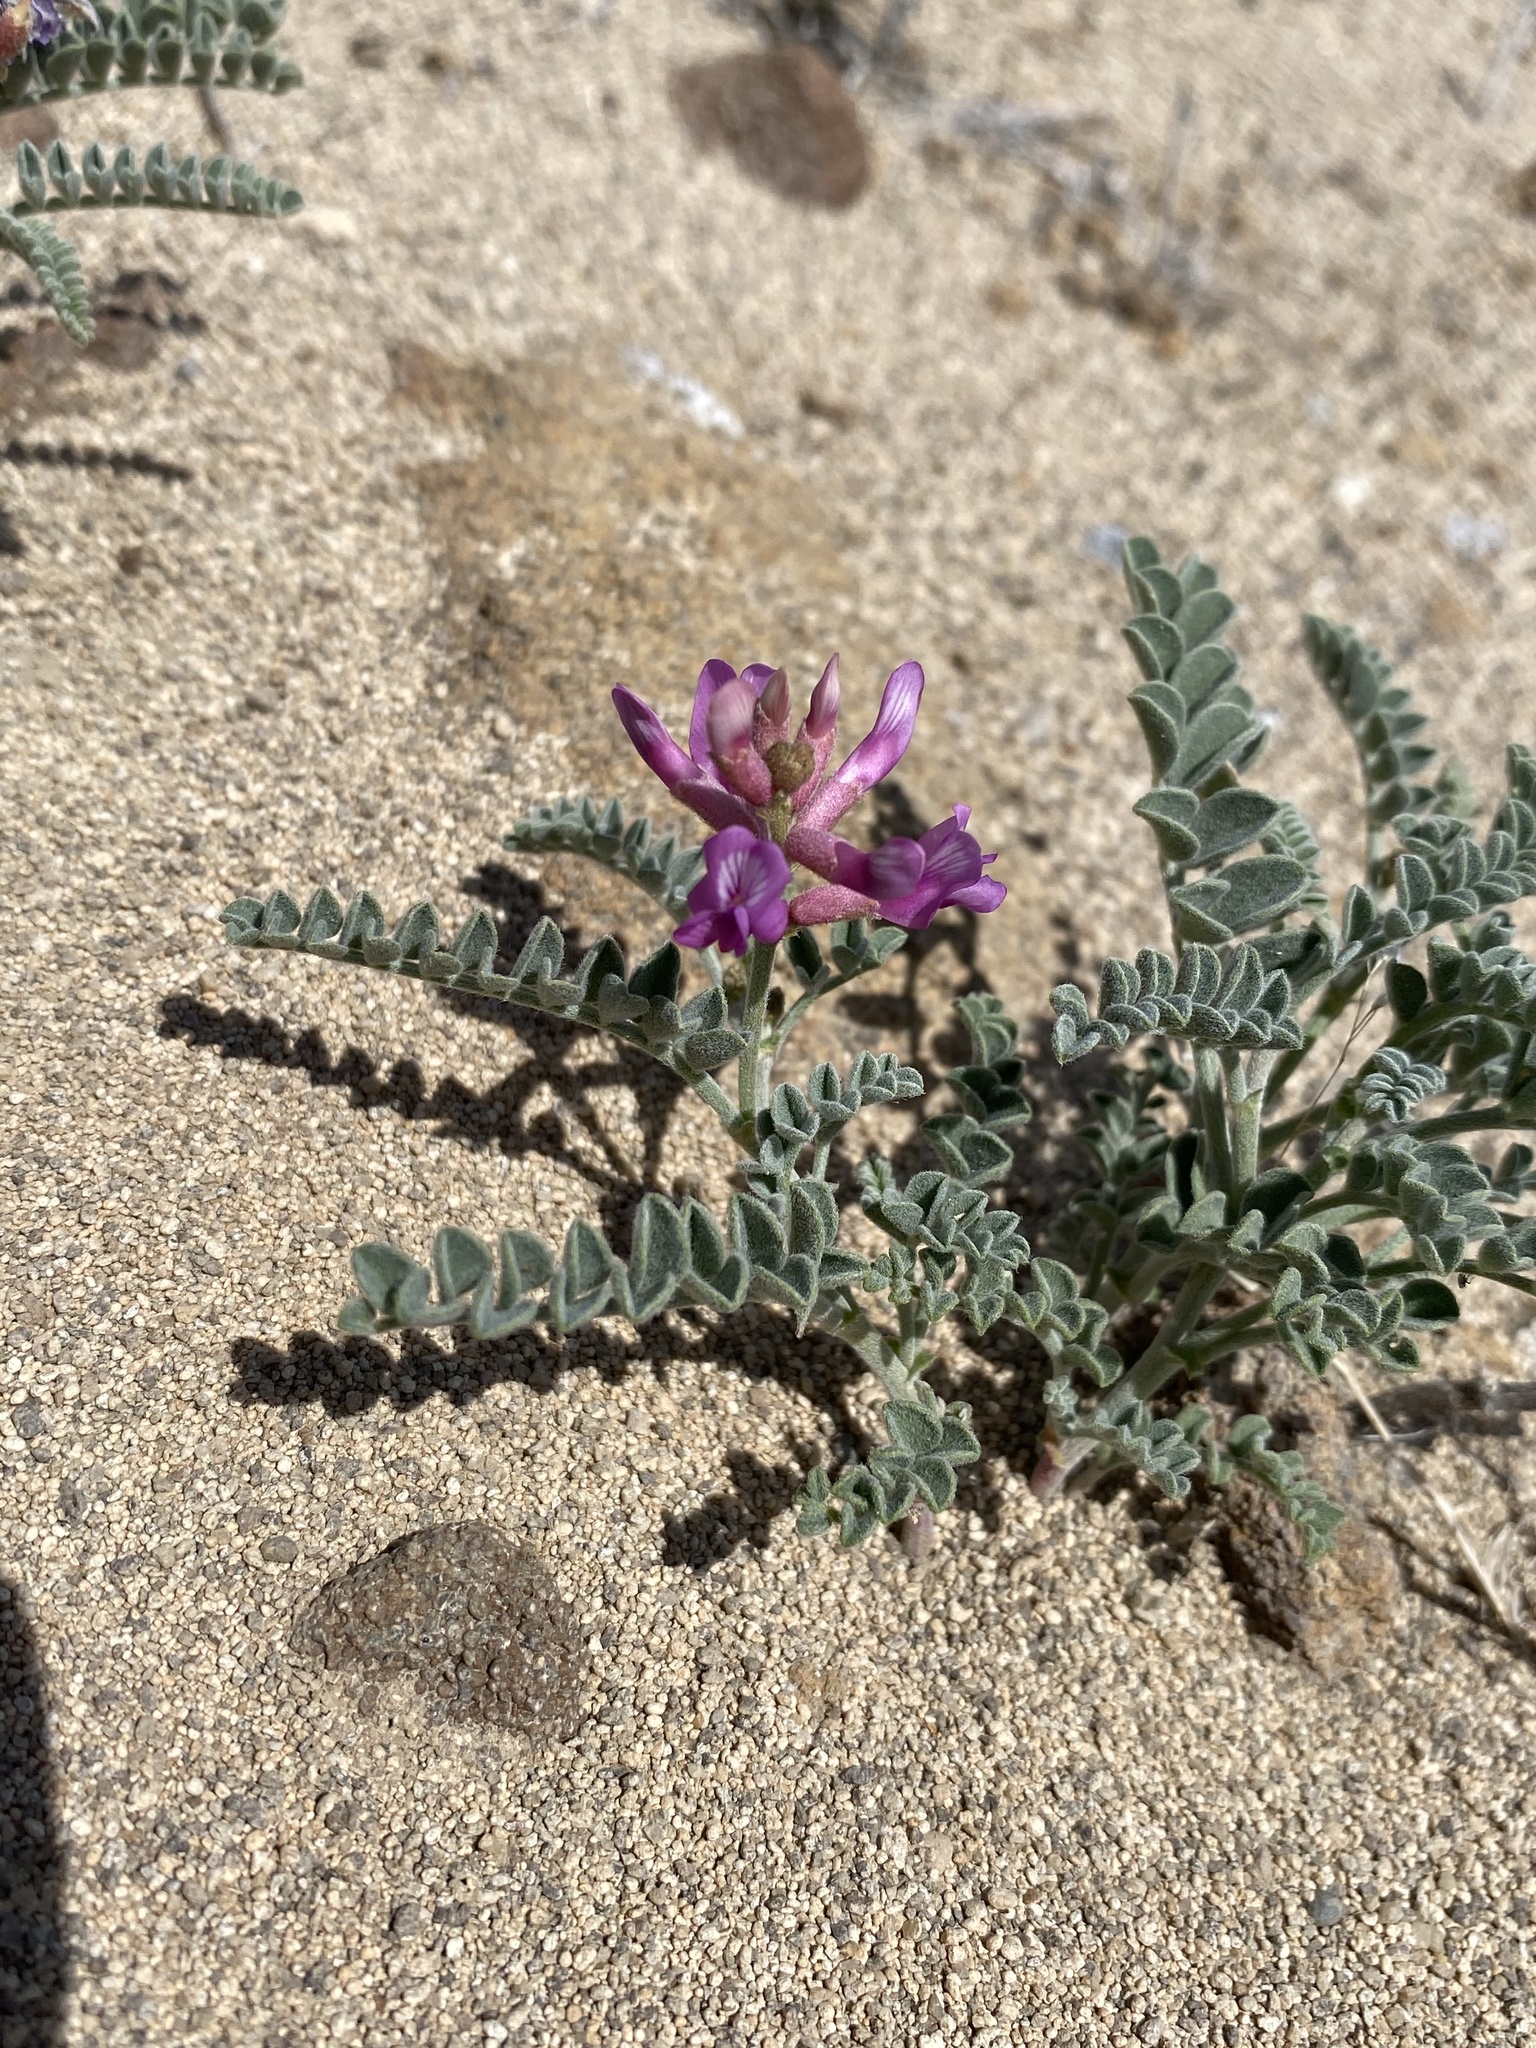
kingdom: Plantae
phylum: Tracheophyta
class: Magnoliopsida
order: Fabales
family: Fabaceae
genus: Astragalus
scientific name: Astragalus camptopus
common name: Bruneau milk-vetch
